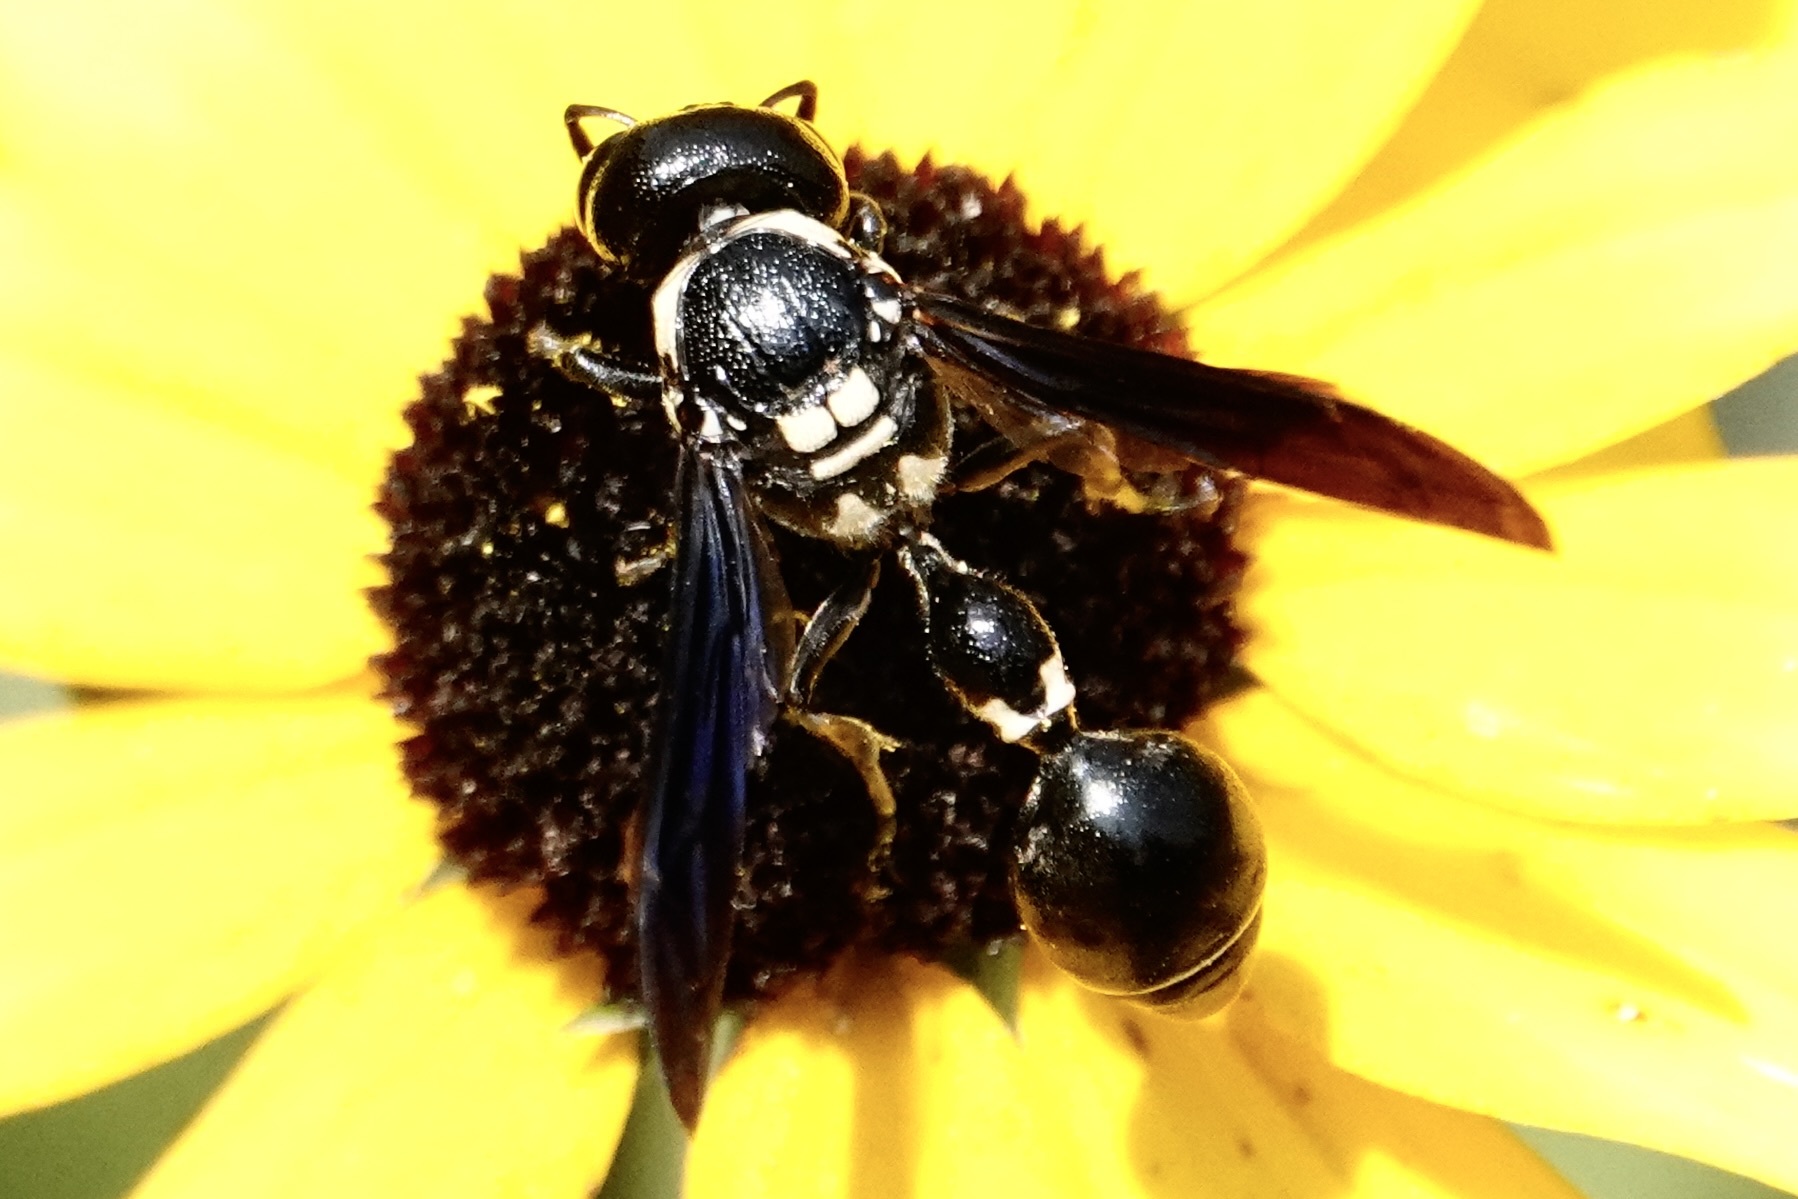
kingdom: Animalia
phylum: Arthropoda
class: Insecta
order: Hymenoptera
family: Eumenidae
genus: Zethus
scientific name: Zethus spinipes
